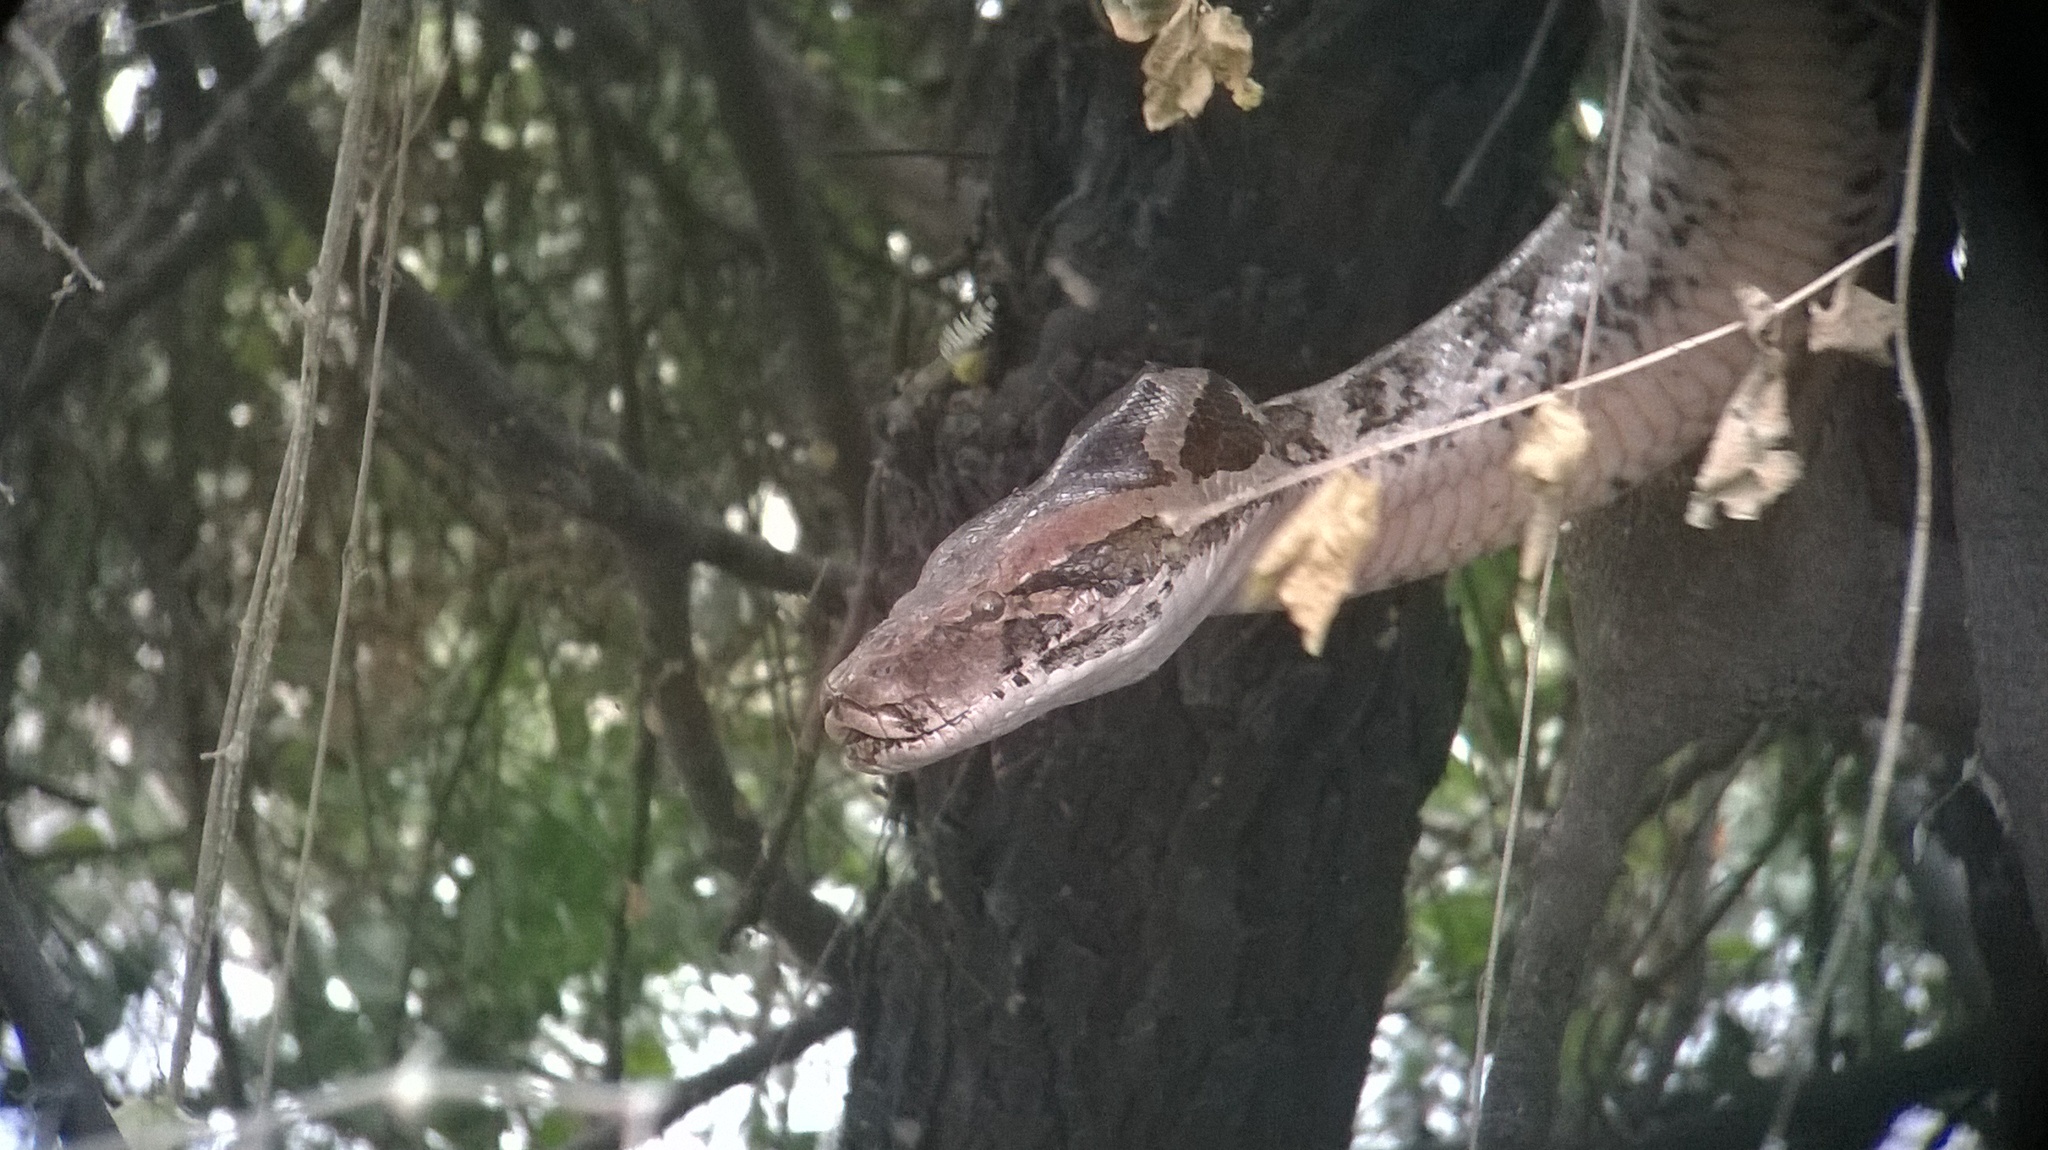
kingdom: Animalia
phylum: Chordata
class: Squamata
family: Pythonidae
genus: Python
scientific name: Python molurus
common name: Indian rock python
